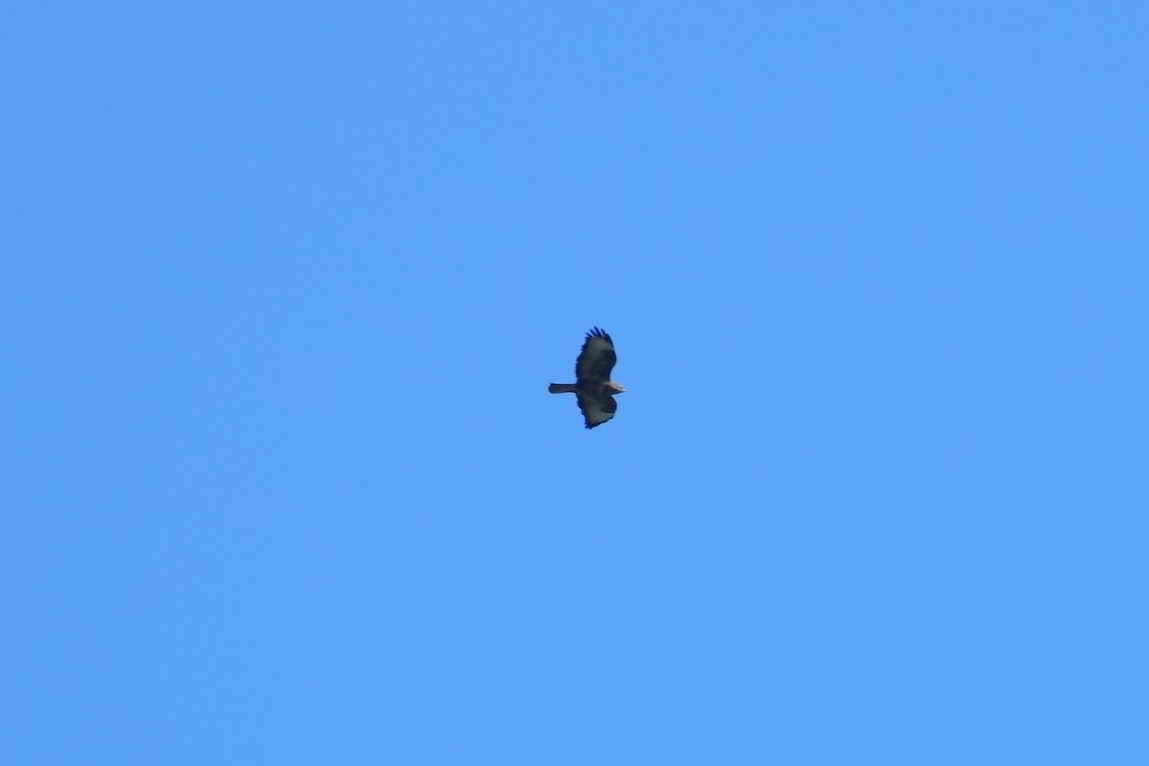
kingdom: Animalia
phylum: Chordata
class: Aves
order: Accipitriformes
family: Accipitridae
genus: Buteo
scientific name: Buteo buteo
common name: Common buzzard
